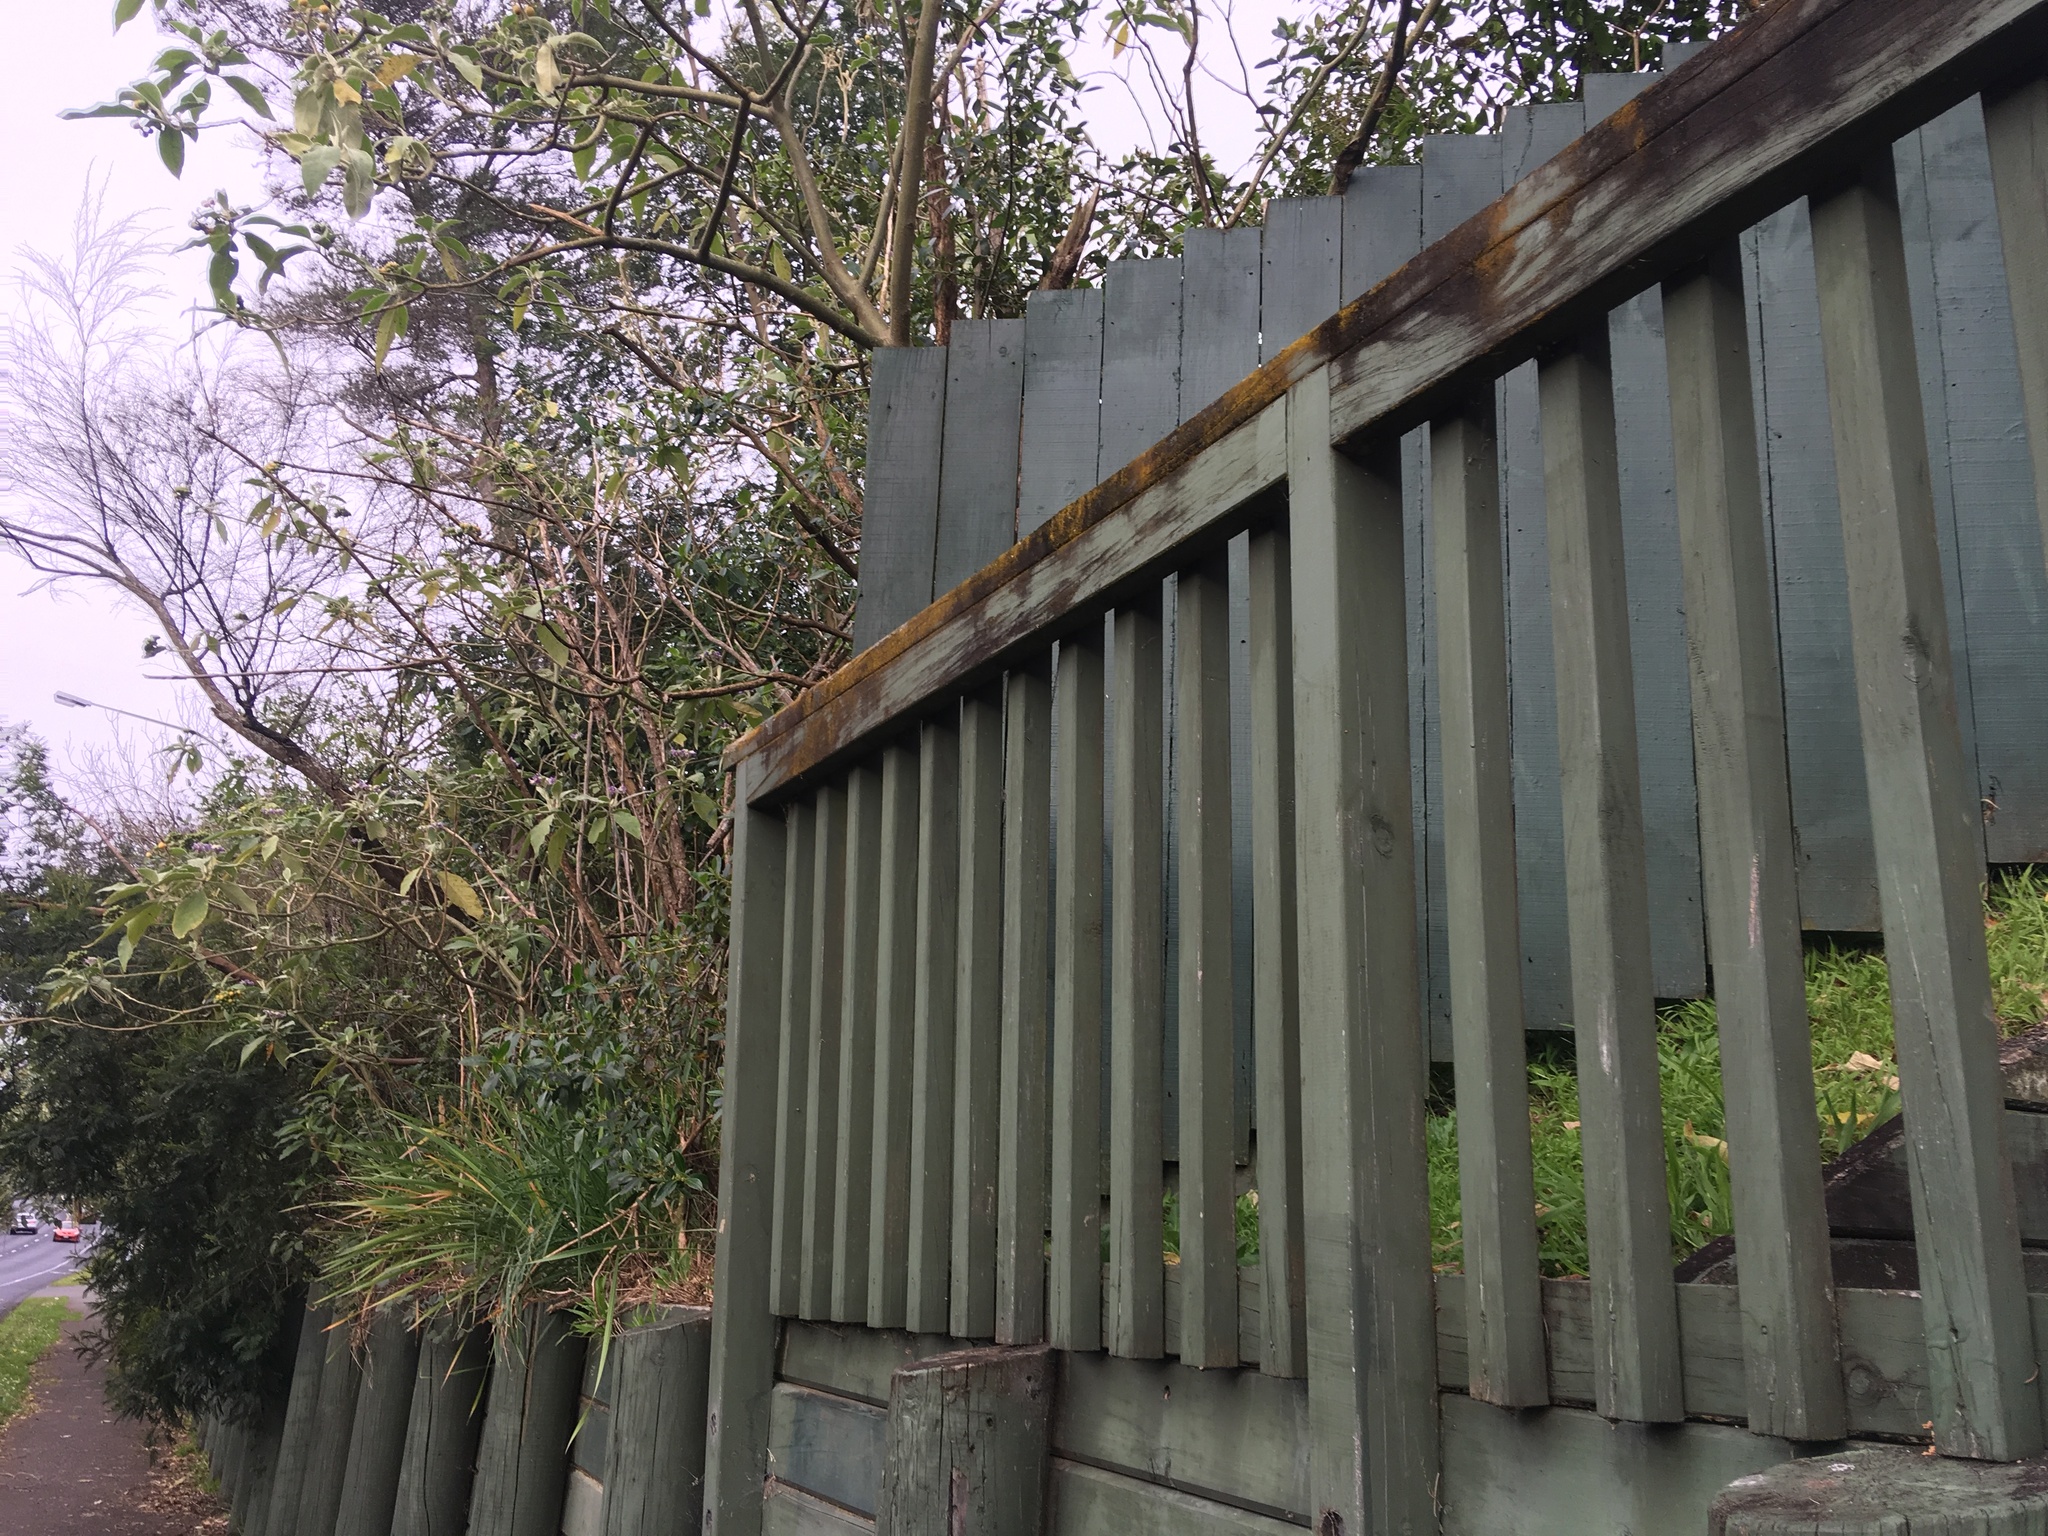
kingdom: Plantae
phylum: Tracheophyta
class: Magnoliopsida
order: Solanales
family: Solanaceae
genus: Solanum
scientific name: Solanum mauritianum
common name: Earleaf nightshade
